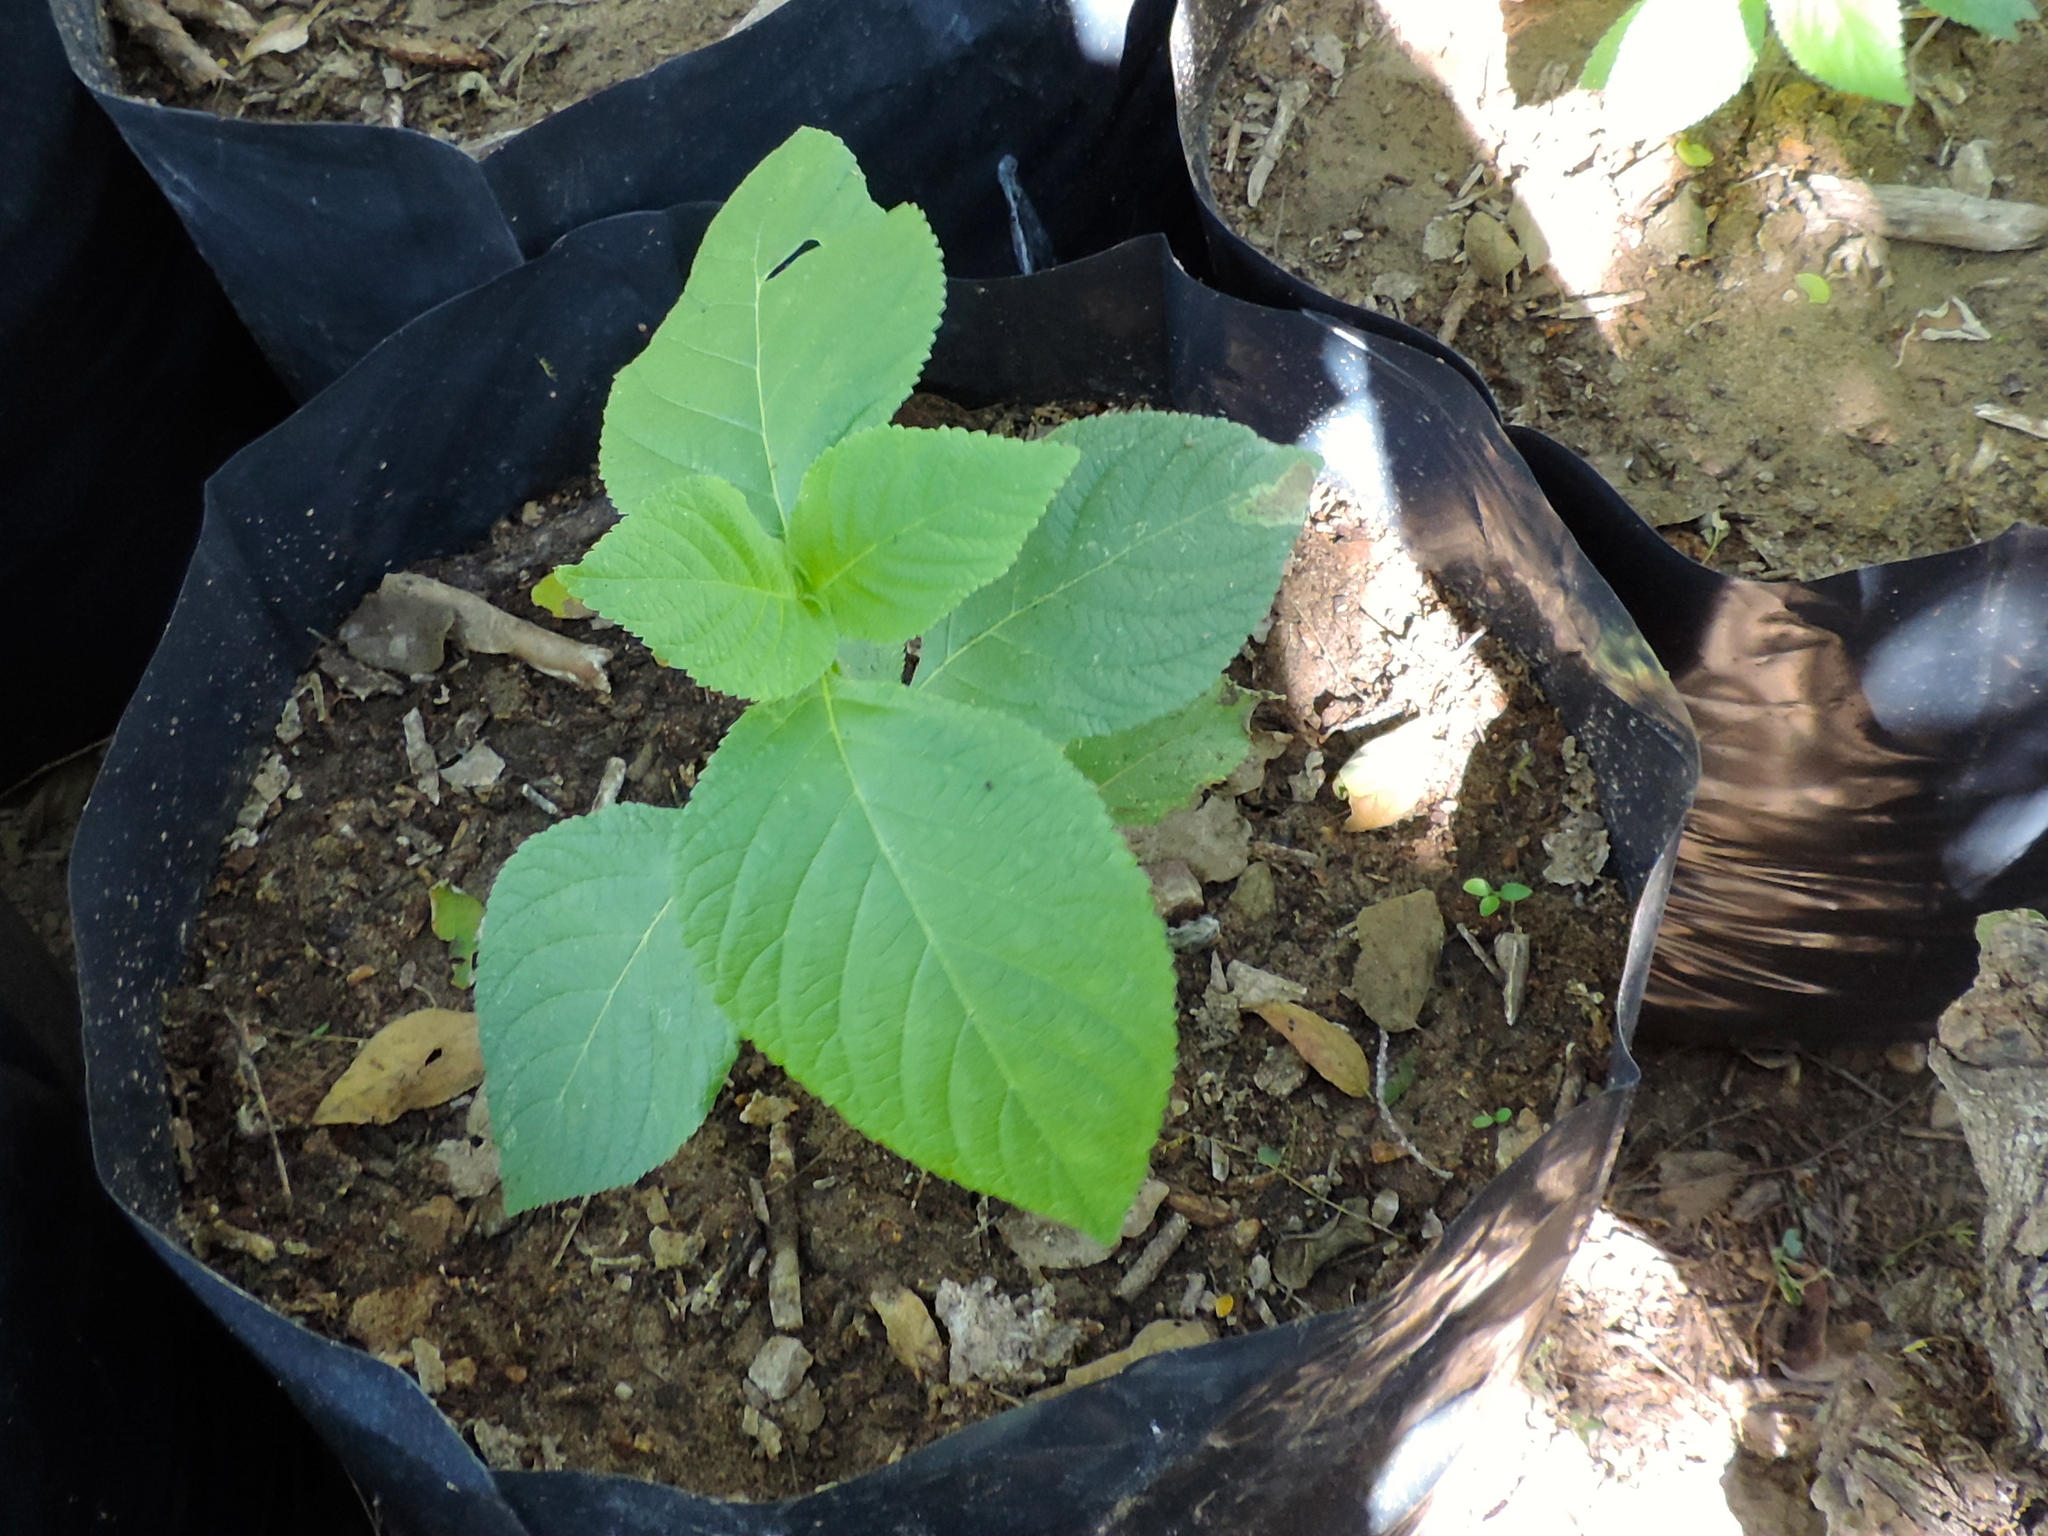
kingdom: Plantae
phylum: Tracheophyta
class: Magnoliopsida
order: Lamiales
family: Verbenaceae
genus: Lippia
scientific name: Lippia umbellata
